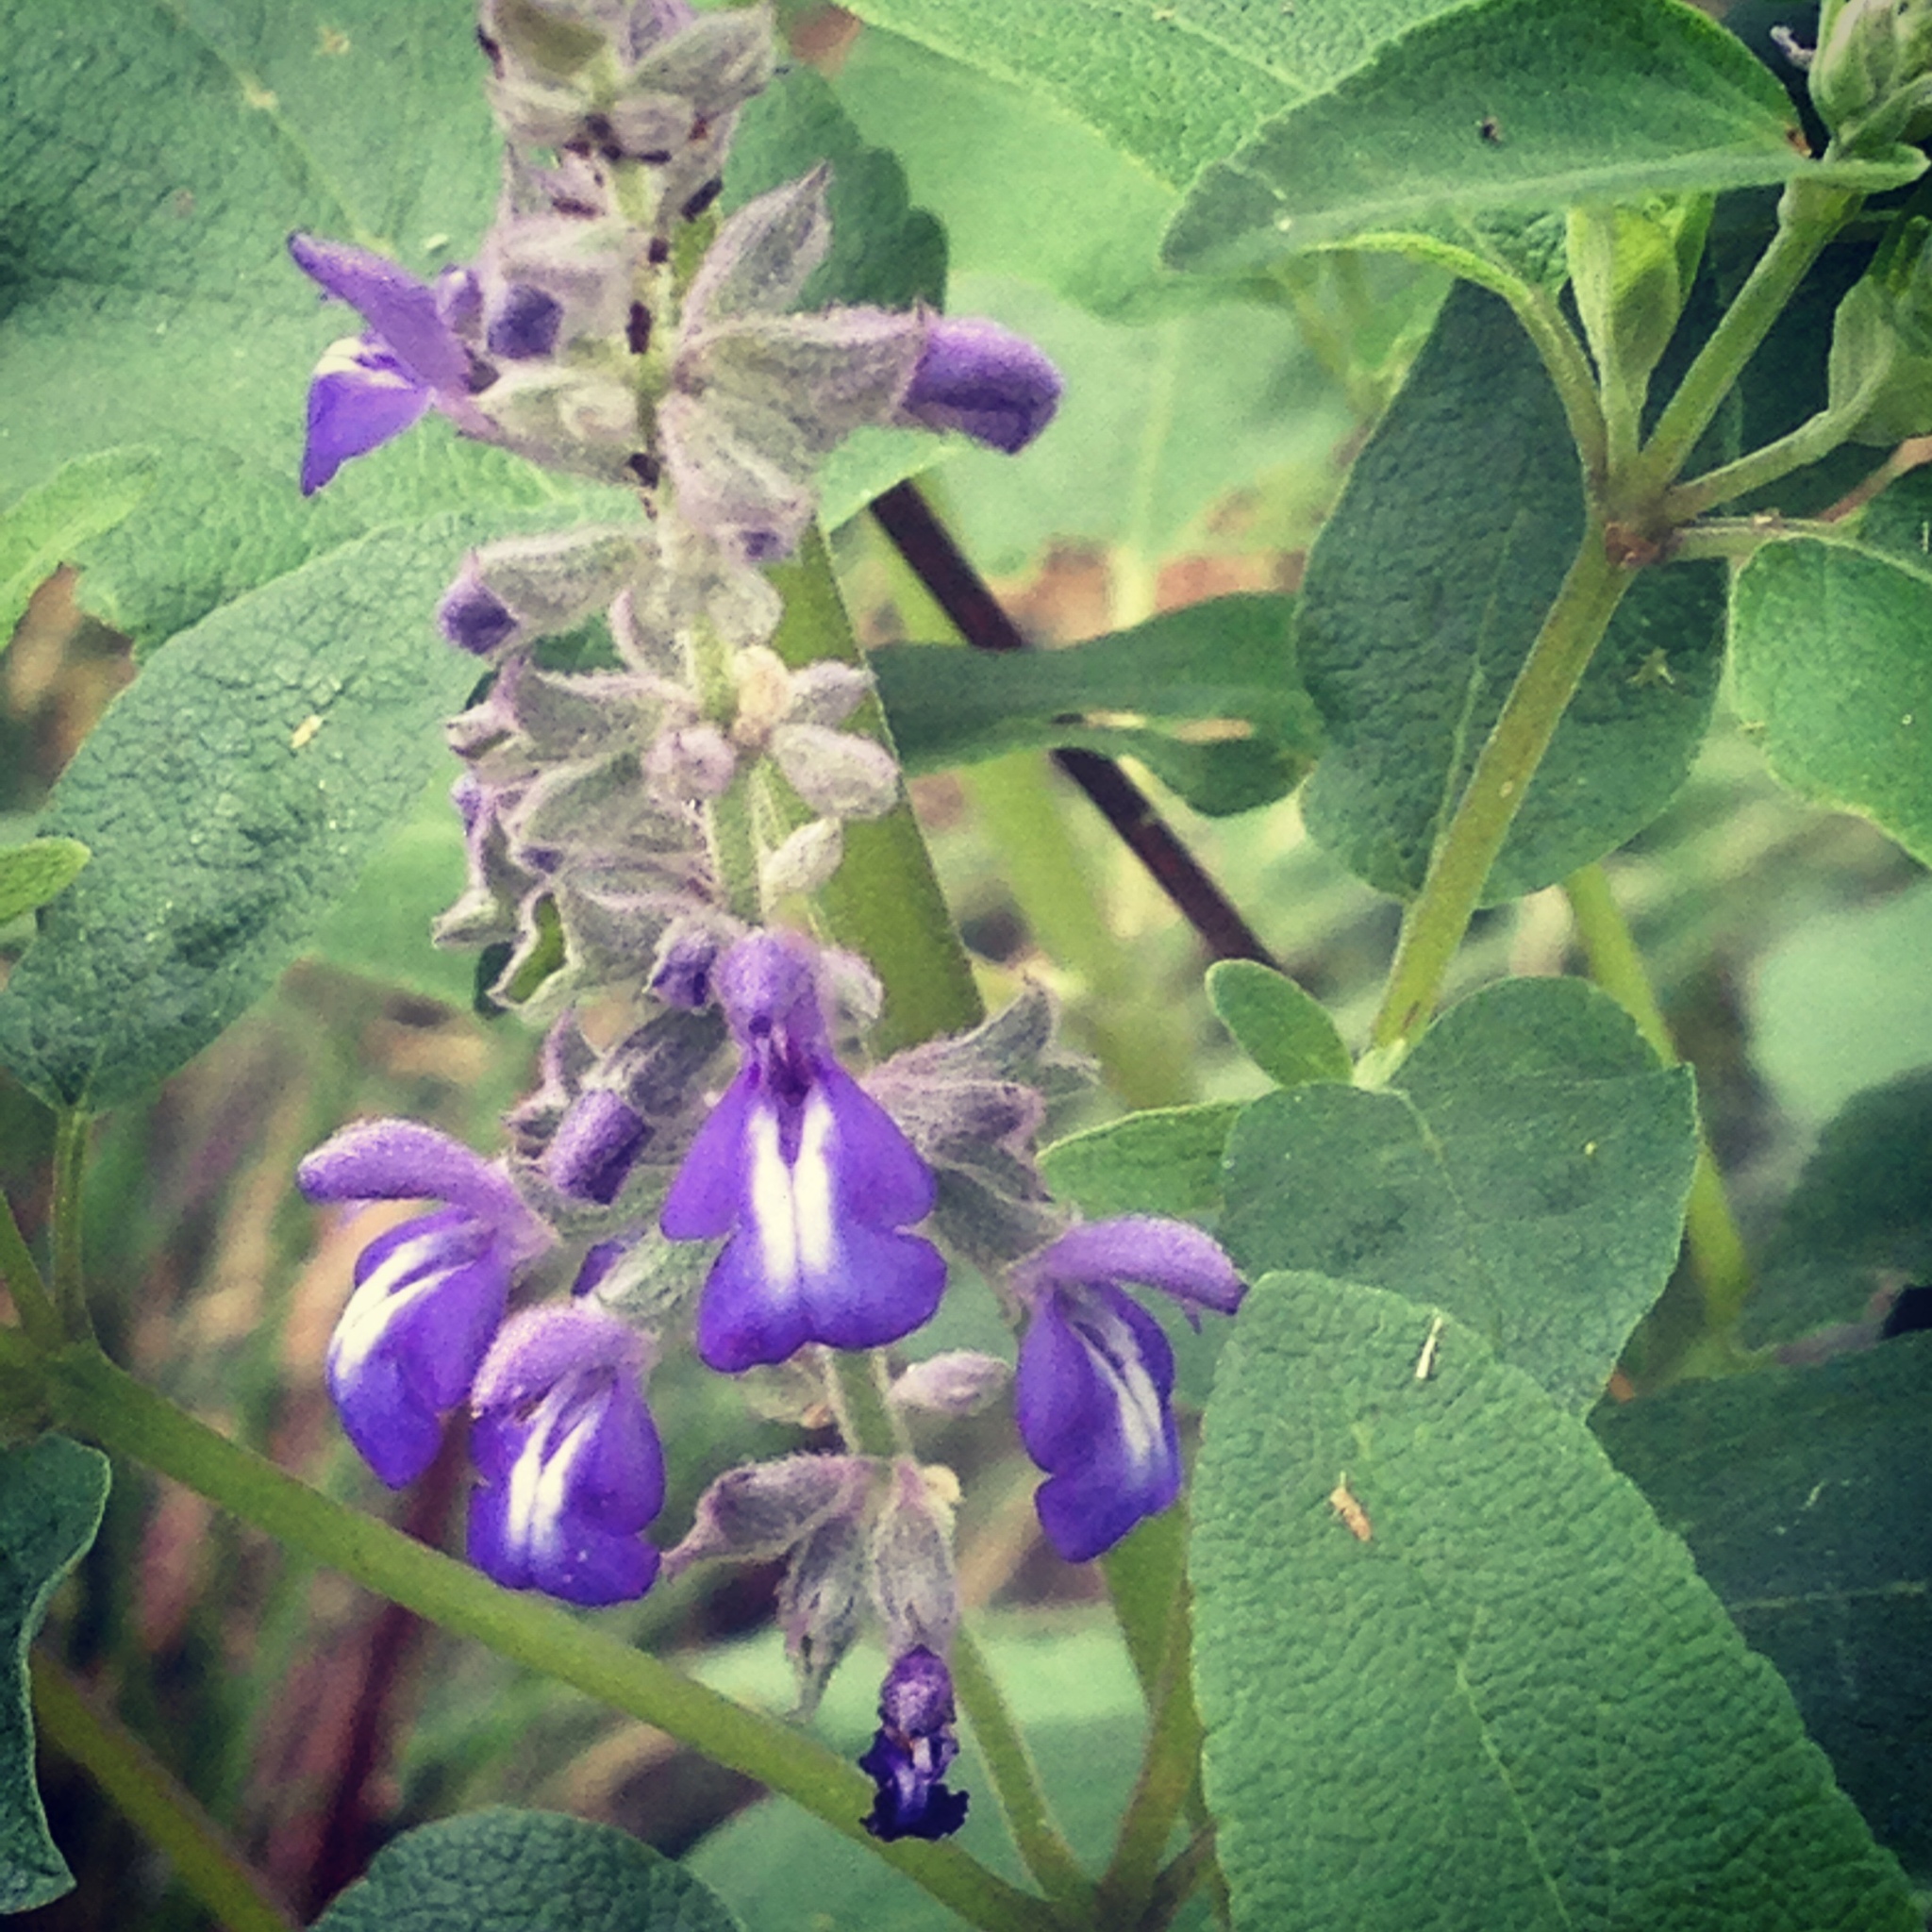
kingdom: Plantae
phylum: Tracheophyta
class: Magnoliopsida
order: Lamiales
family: Lamiaceae
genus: Salvia
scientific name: Salvia humboldtiana
